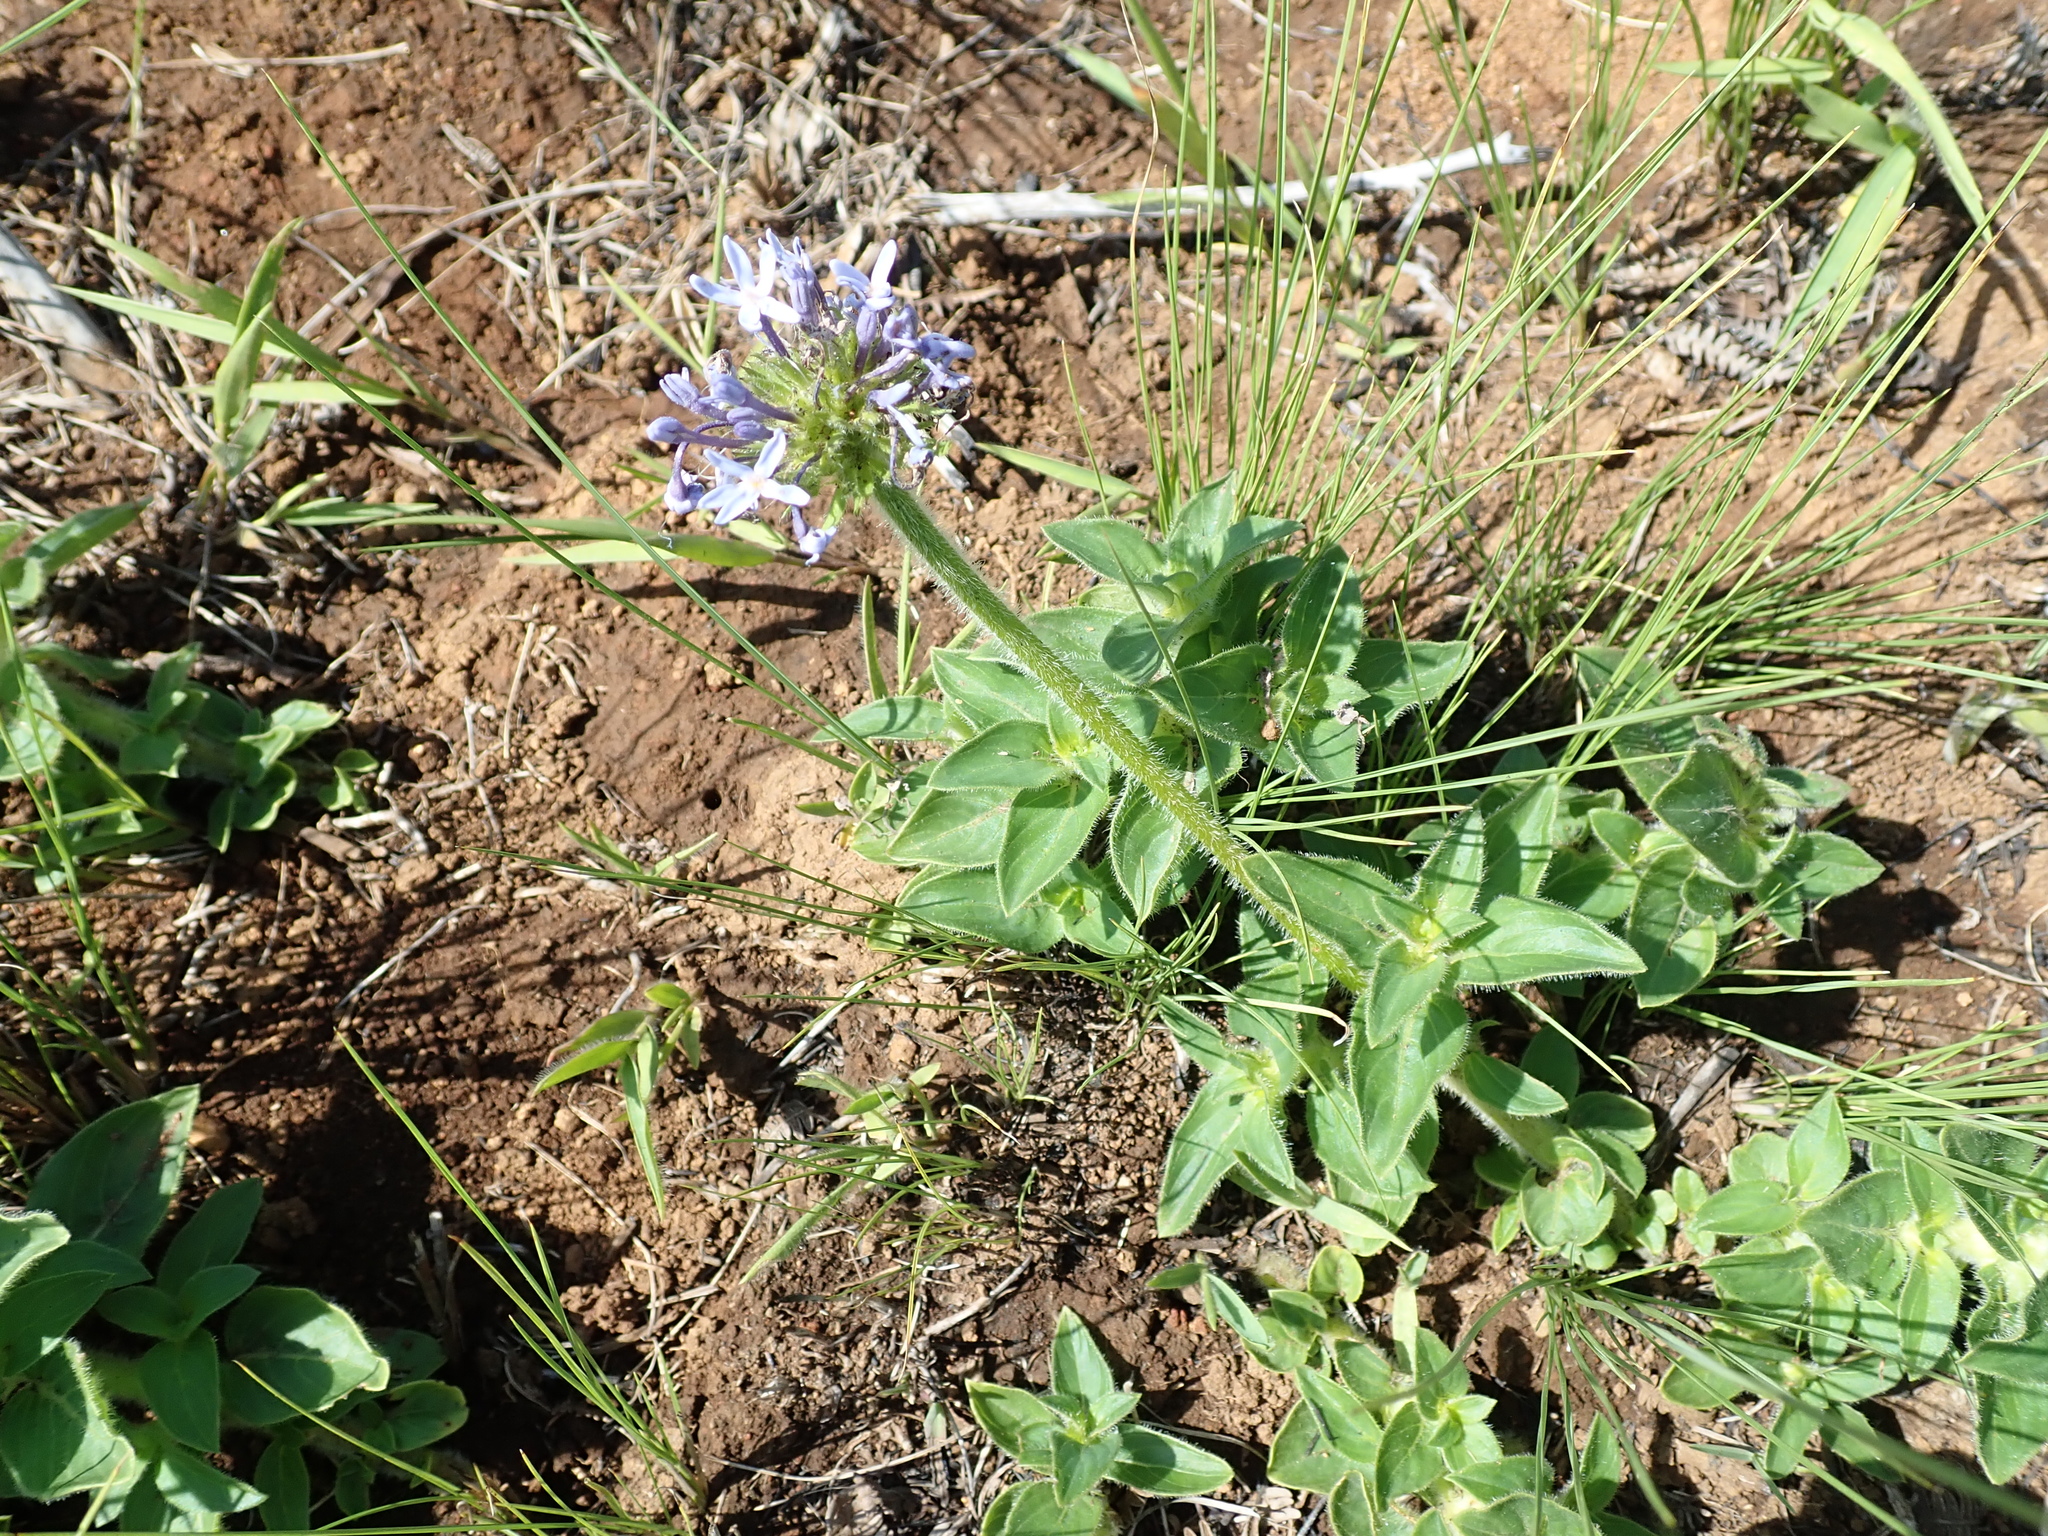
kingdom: Plantae
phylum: Tracheophyta
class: Magnoliopsida
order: Gentianales
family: Rubiaceae
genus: Pentanisia
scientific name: Pentanisia prunelloides
